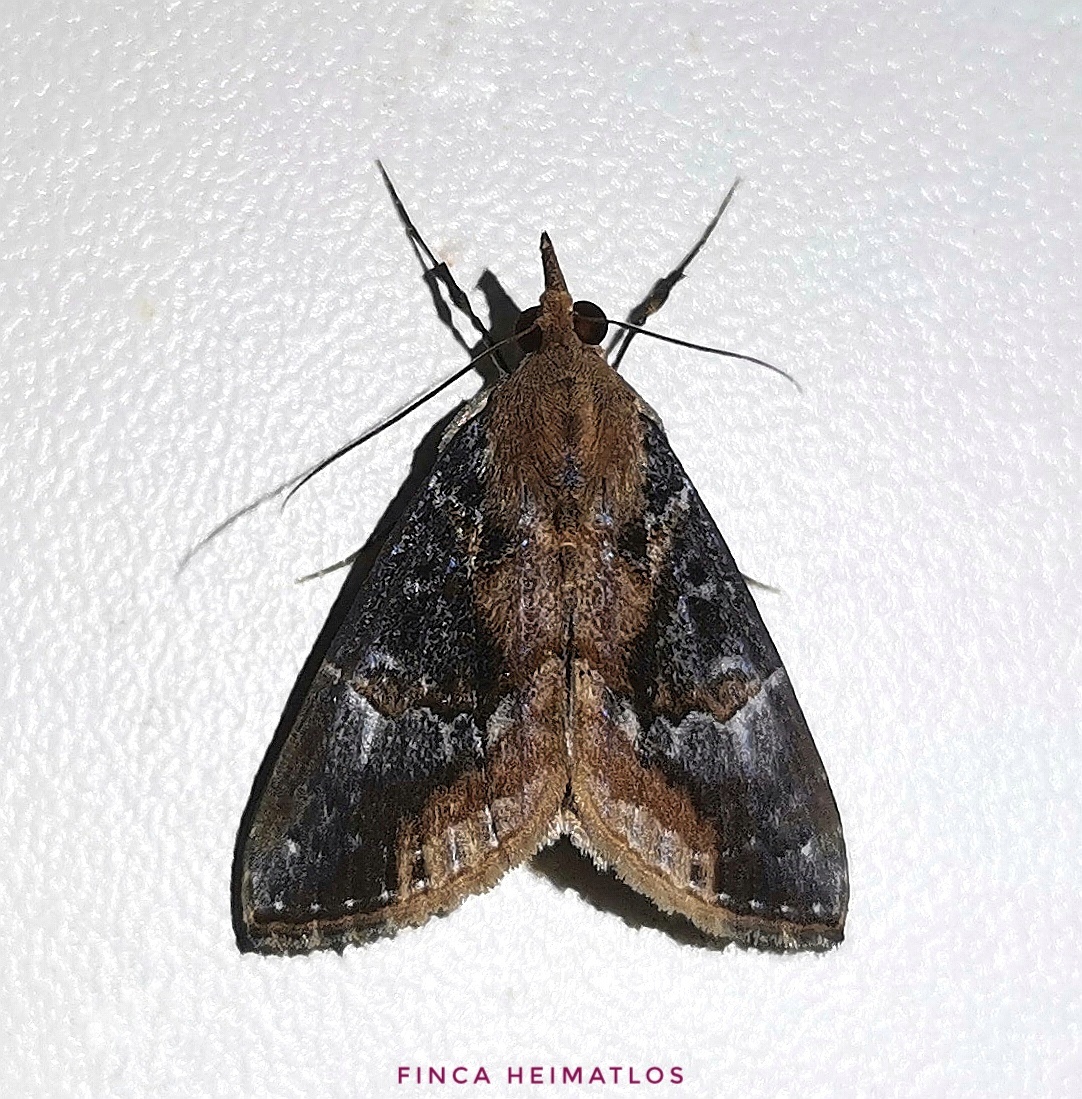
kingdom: Animalia
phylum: Arthropoda
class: Insecta
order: Lepidoptera
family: Erebidae
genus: Hypena
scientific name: Hypena glumalis
